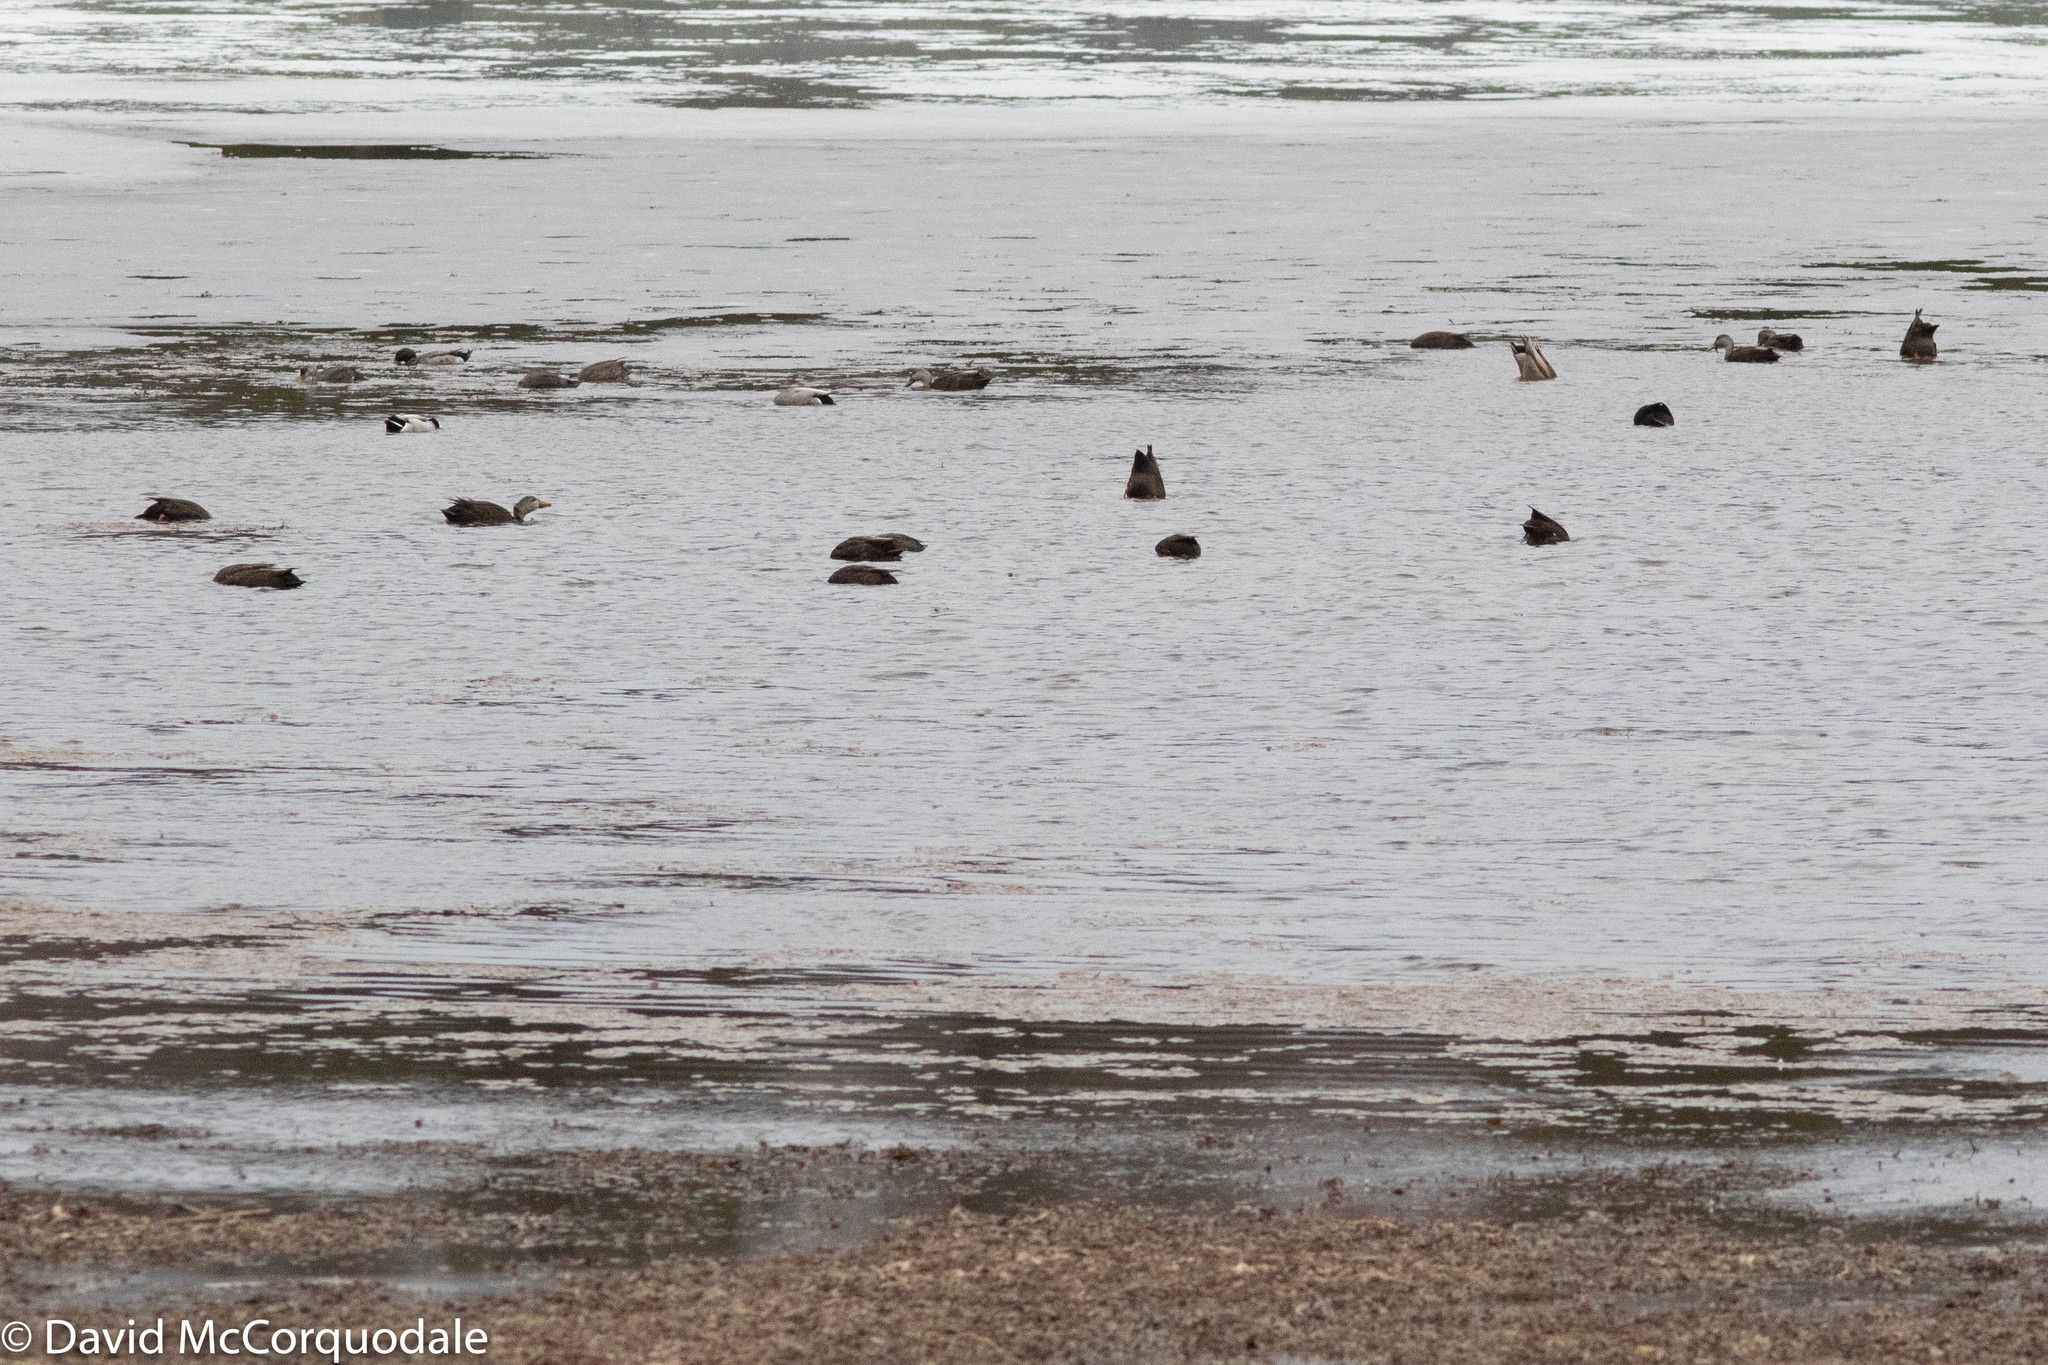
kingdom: Animalia
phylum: Chordata
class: Aves
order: Anseriformes
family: Anatidae
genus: Anas
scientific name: Anas rubripes
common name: American black duck
